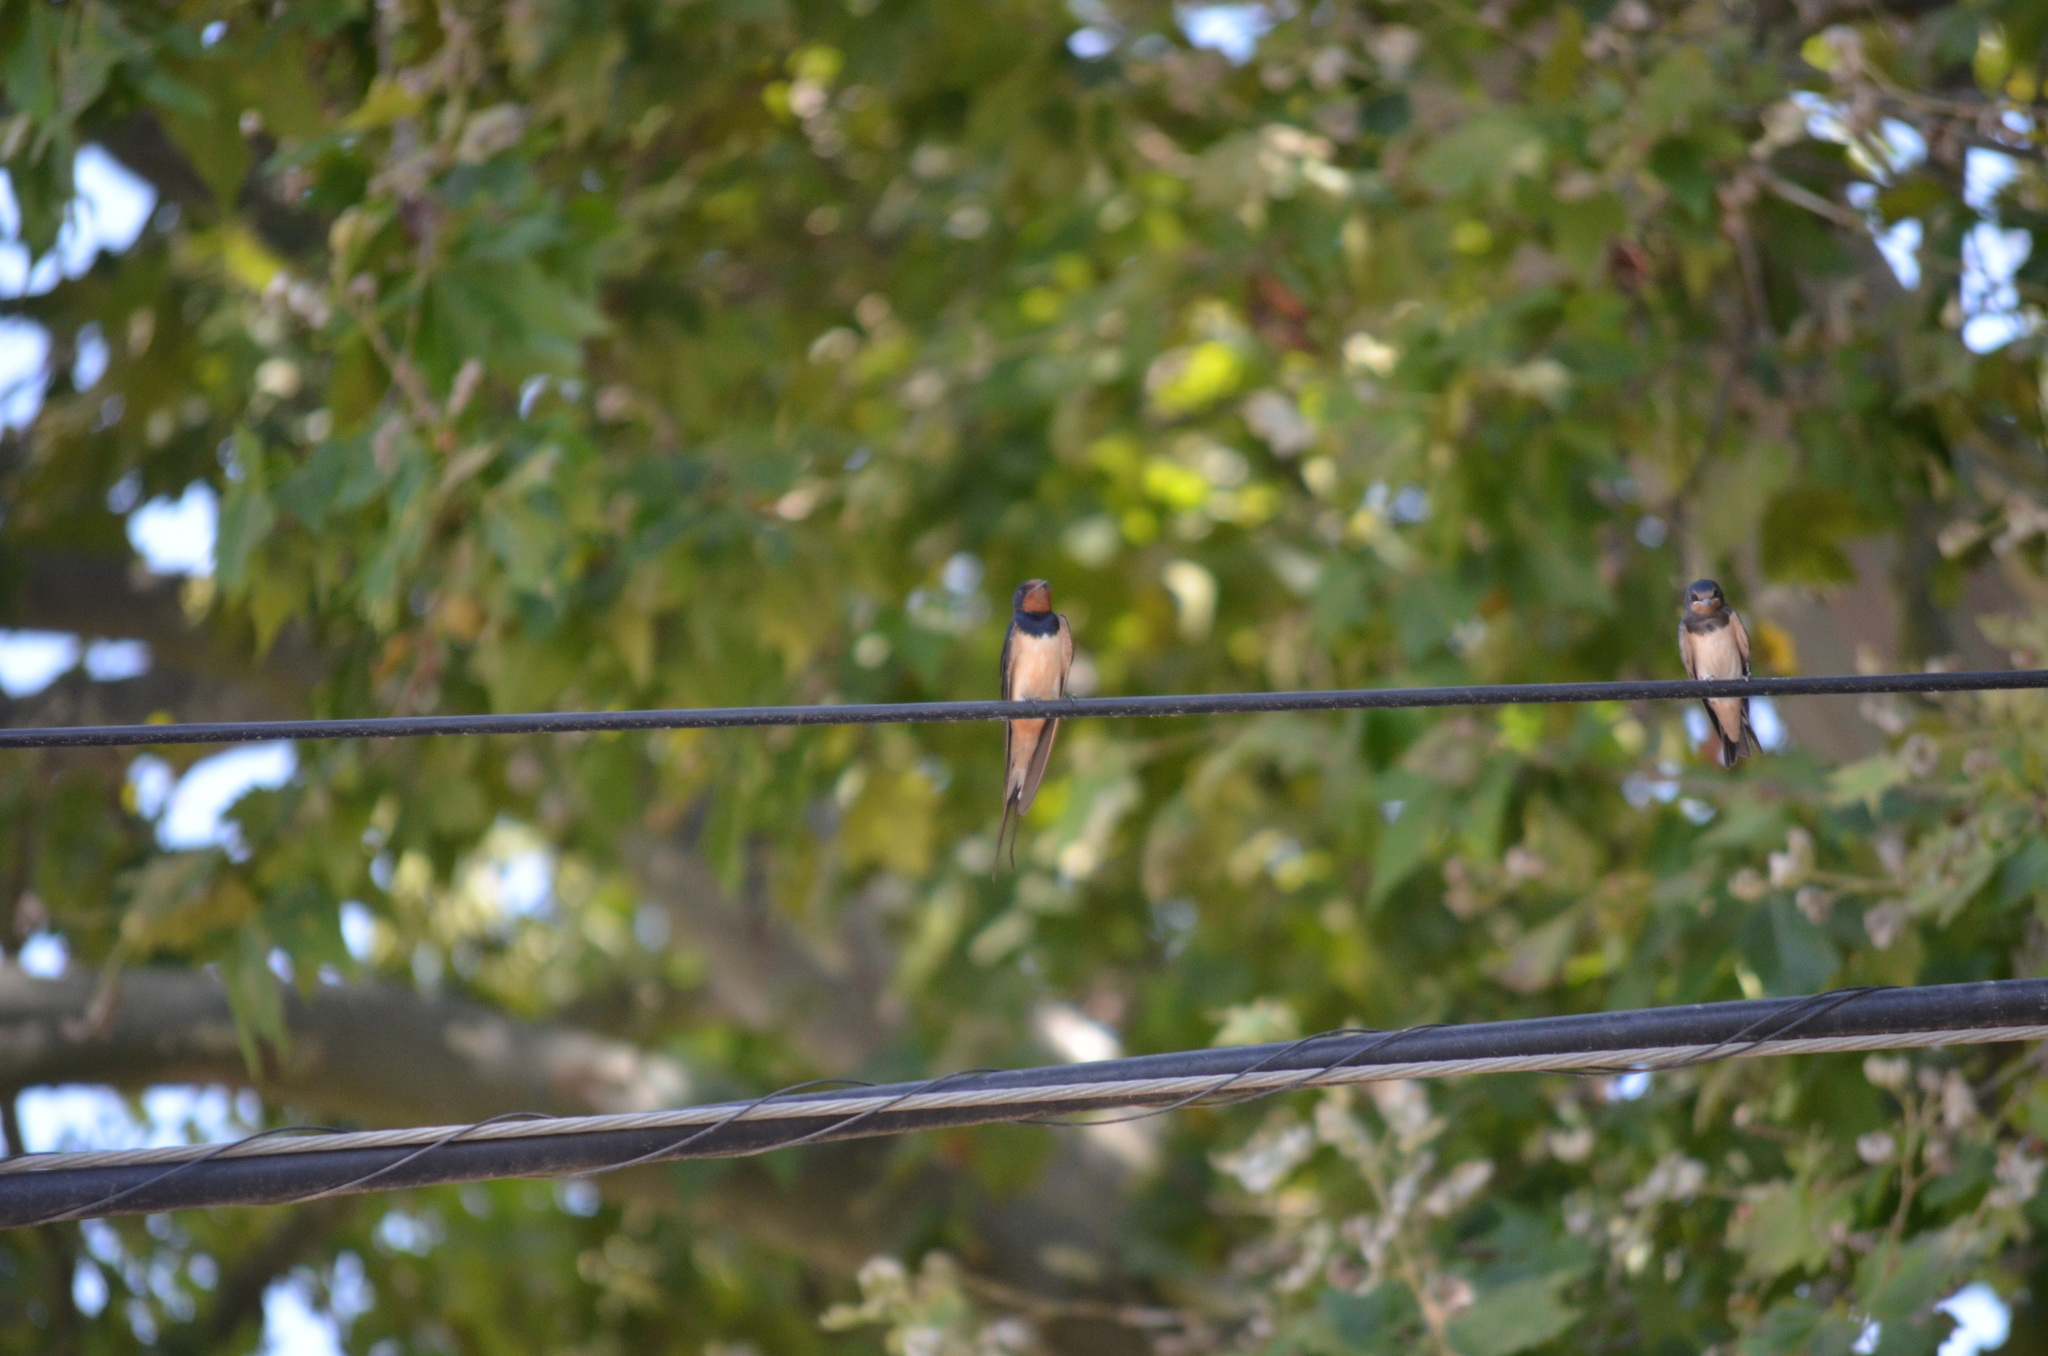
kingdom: Animalia
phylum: Chordata
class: Aves
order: Passeriformes
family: Hirundinidae
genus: Hirundo
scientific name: Hirundo rustica
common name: Barn swallow
